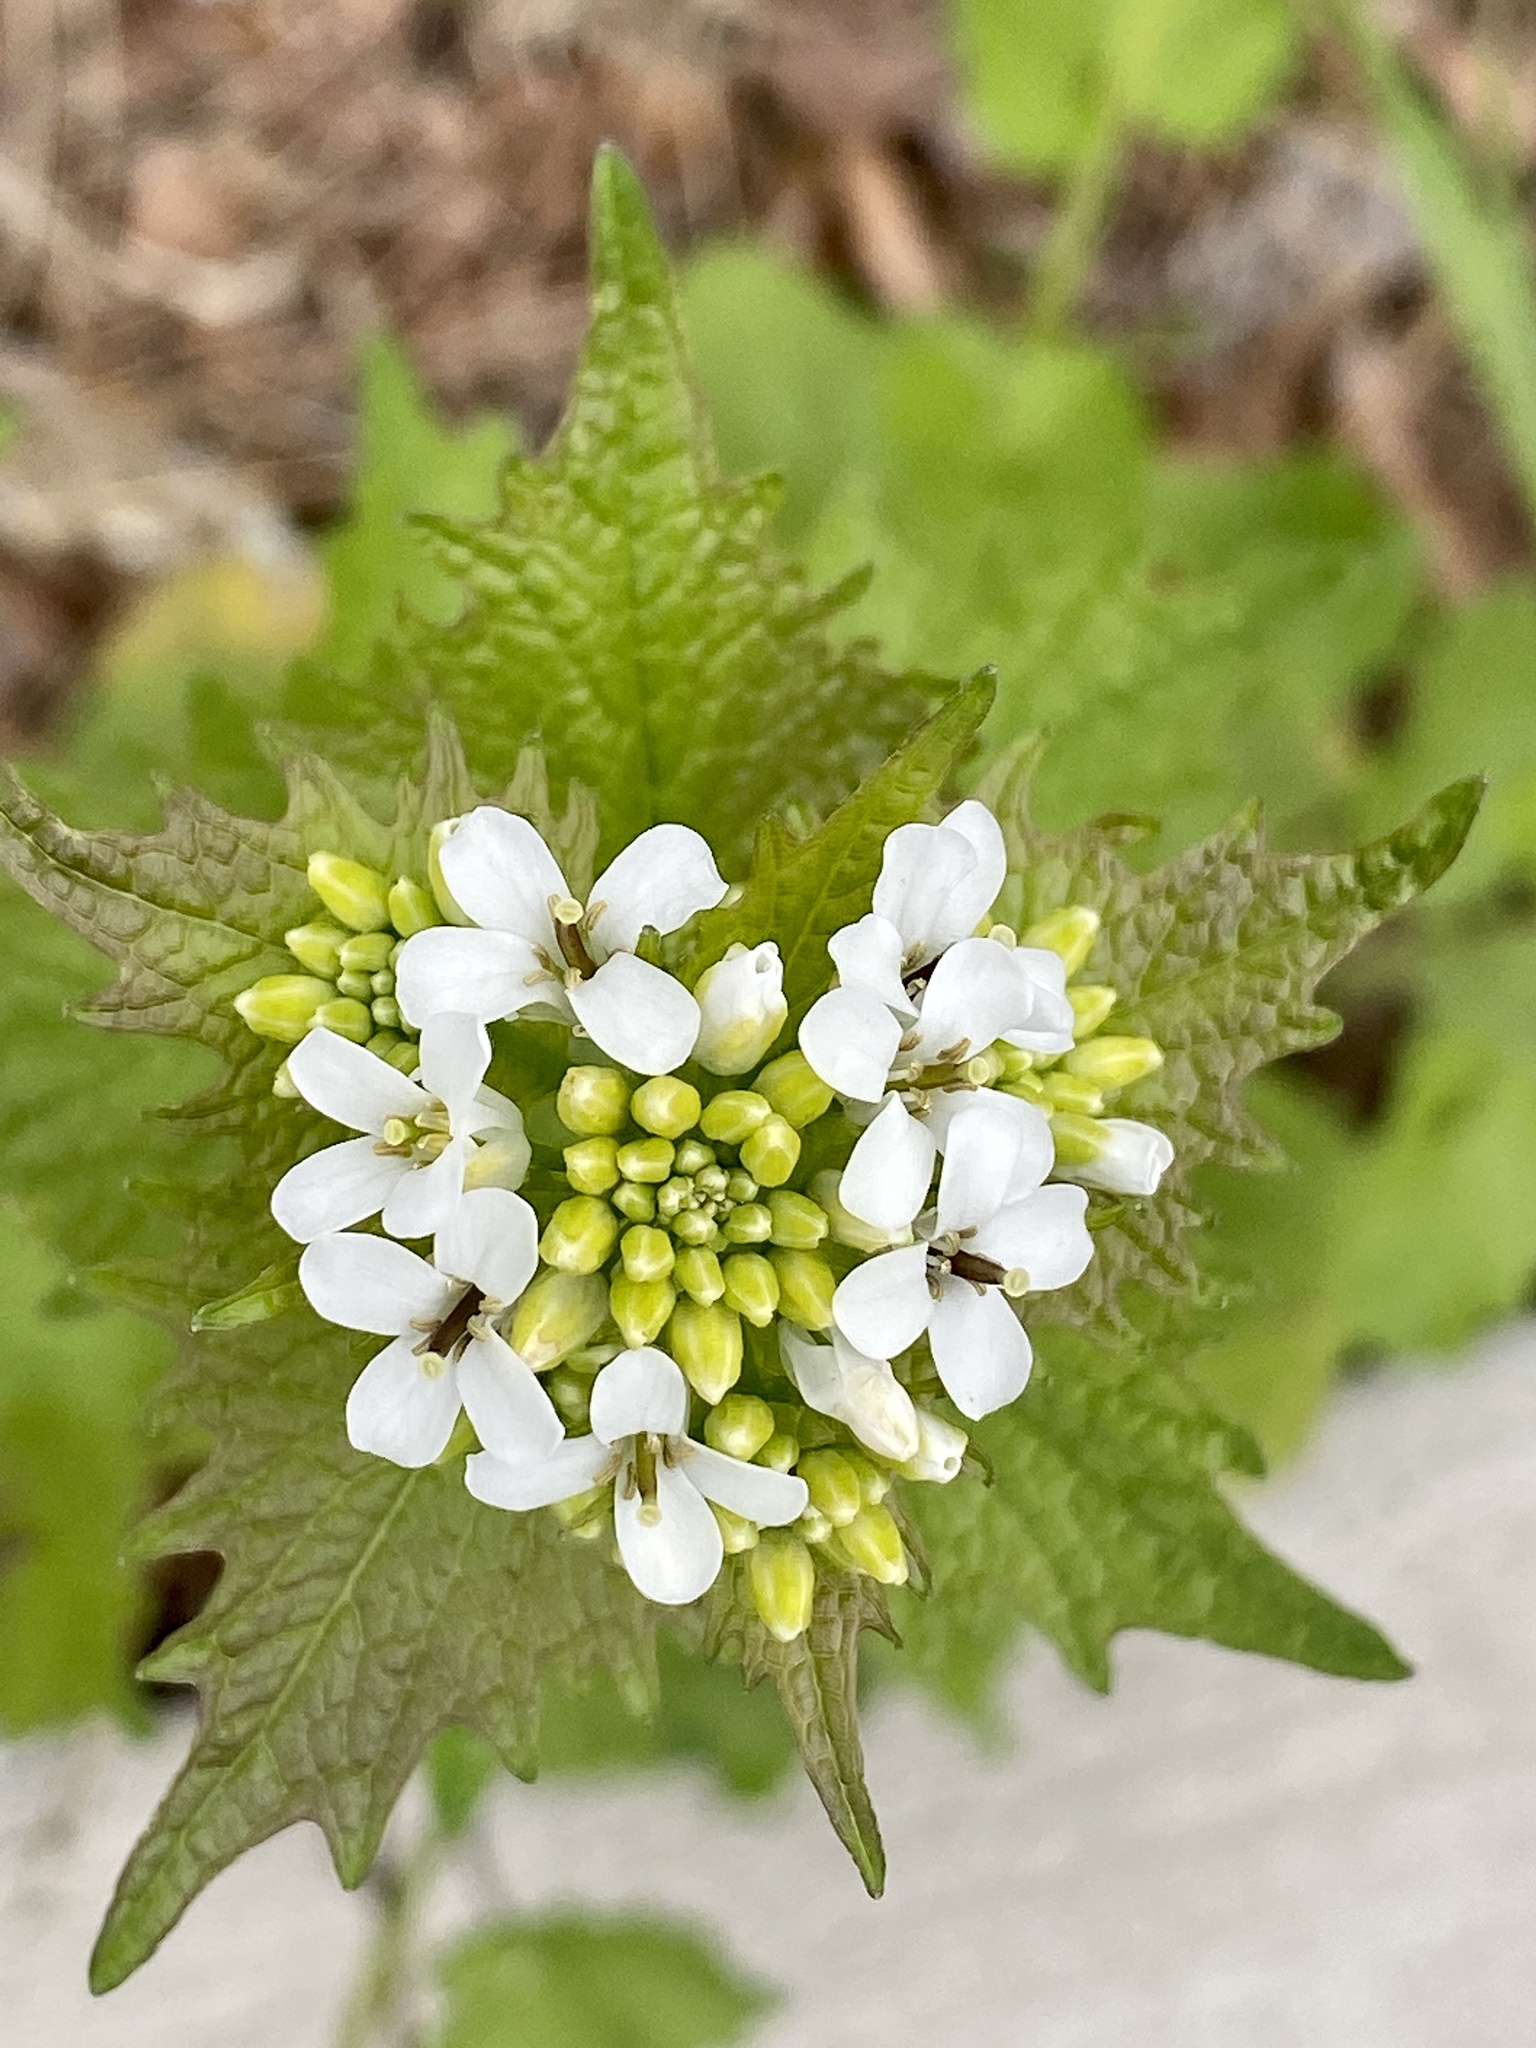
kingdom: Plantae
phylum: Tracheophyta
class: Magnoliopsida
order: Brassicales
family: Brassicaceae
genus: Alliaria
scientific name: Alliaria petiolata
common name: Garlic mustard
